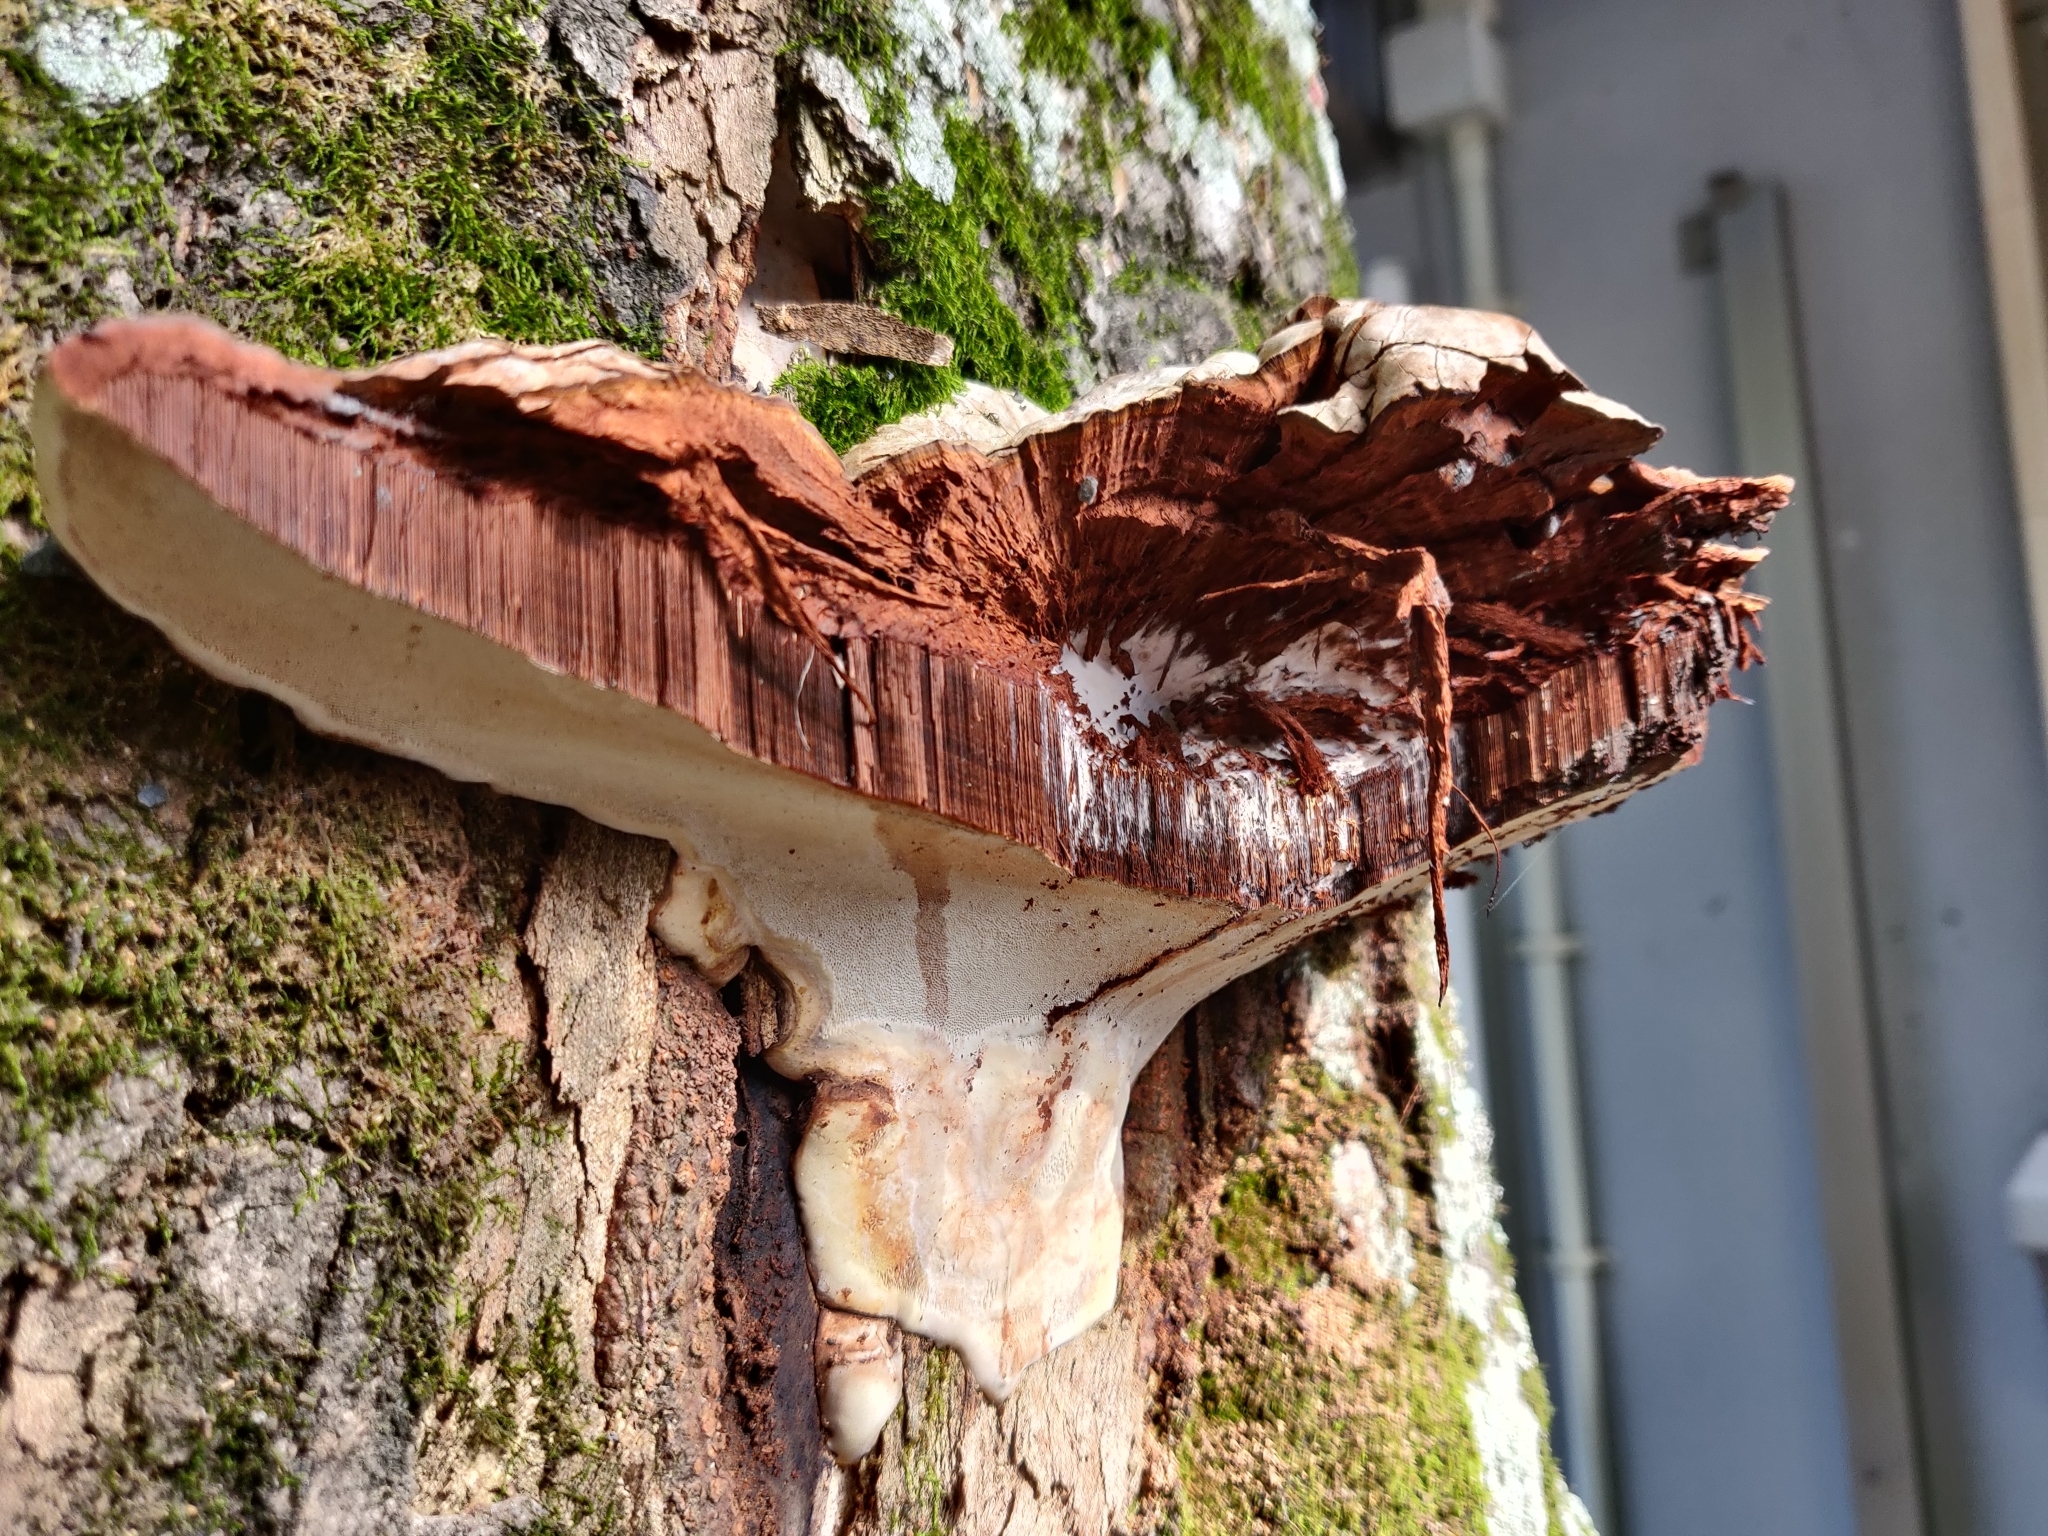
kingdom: Fungi
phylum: Basidiomycota
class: Agaricomycetes
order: Polyporales
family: Polyporaceae
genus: Ganoderma
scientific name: Ganoderma applanatum
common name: Artist's bracket
